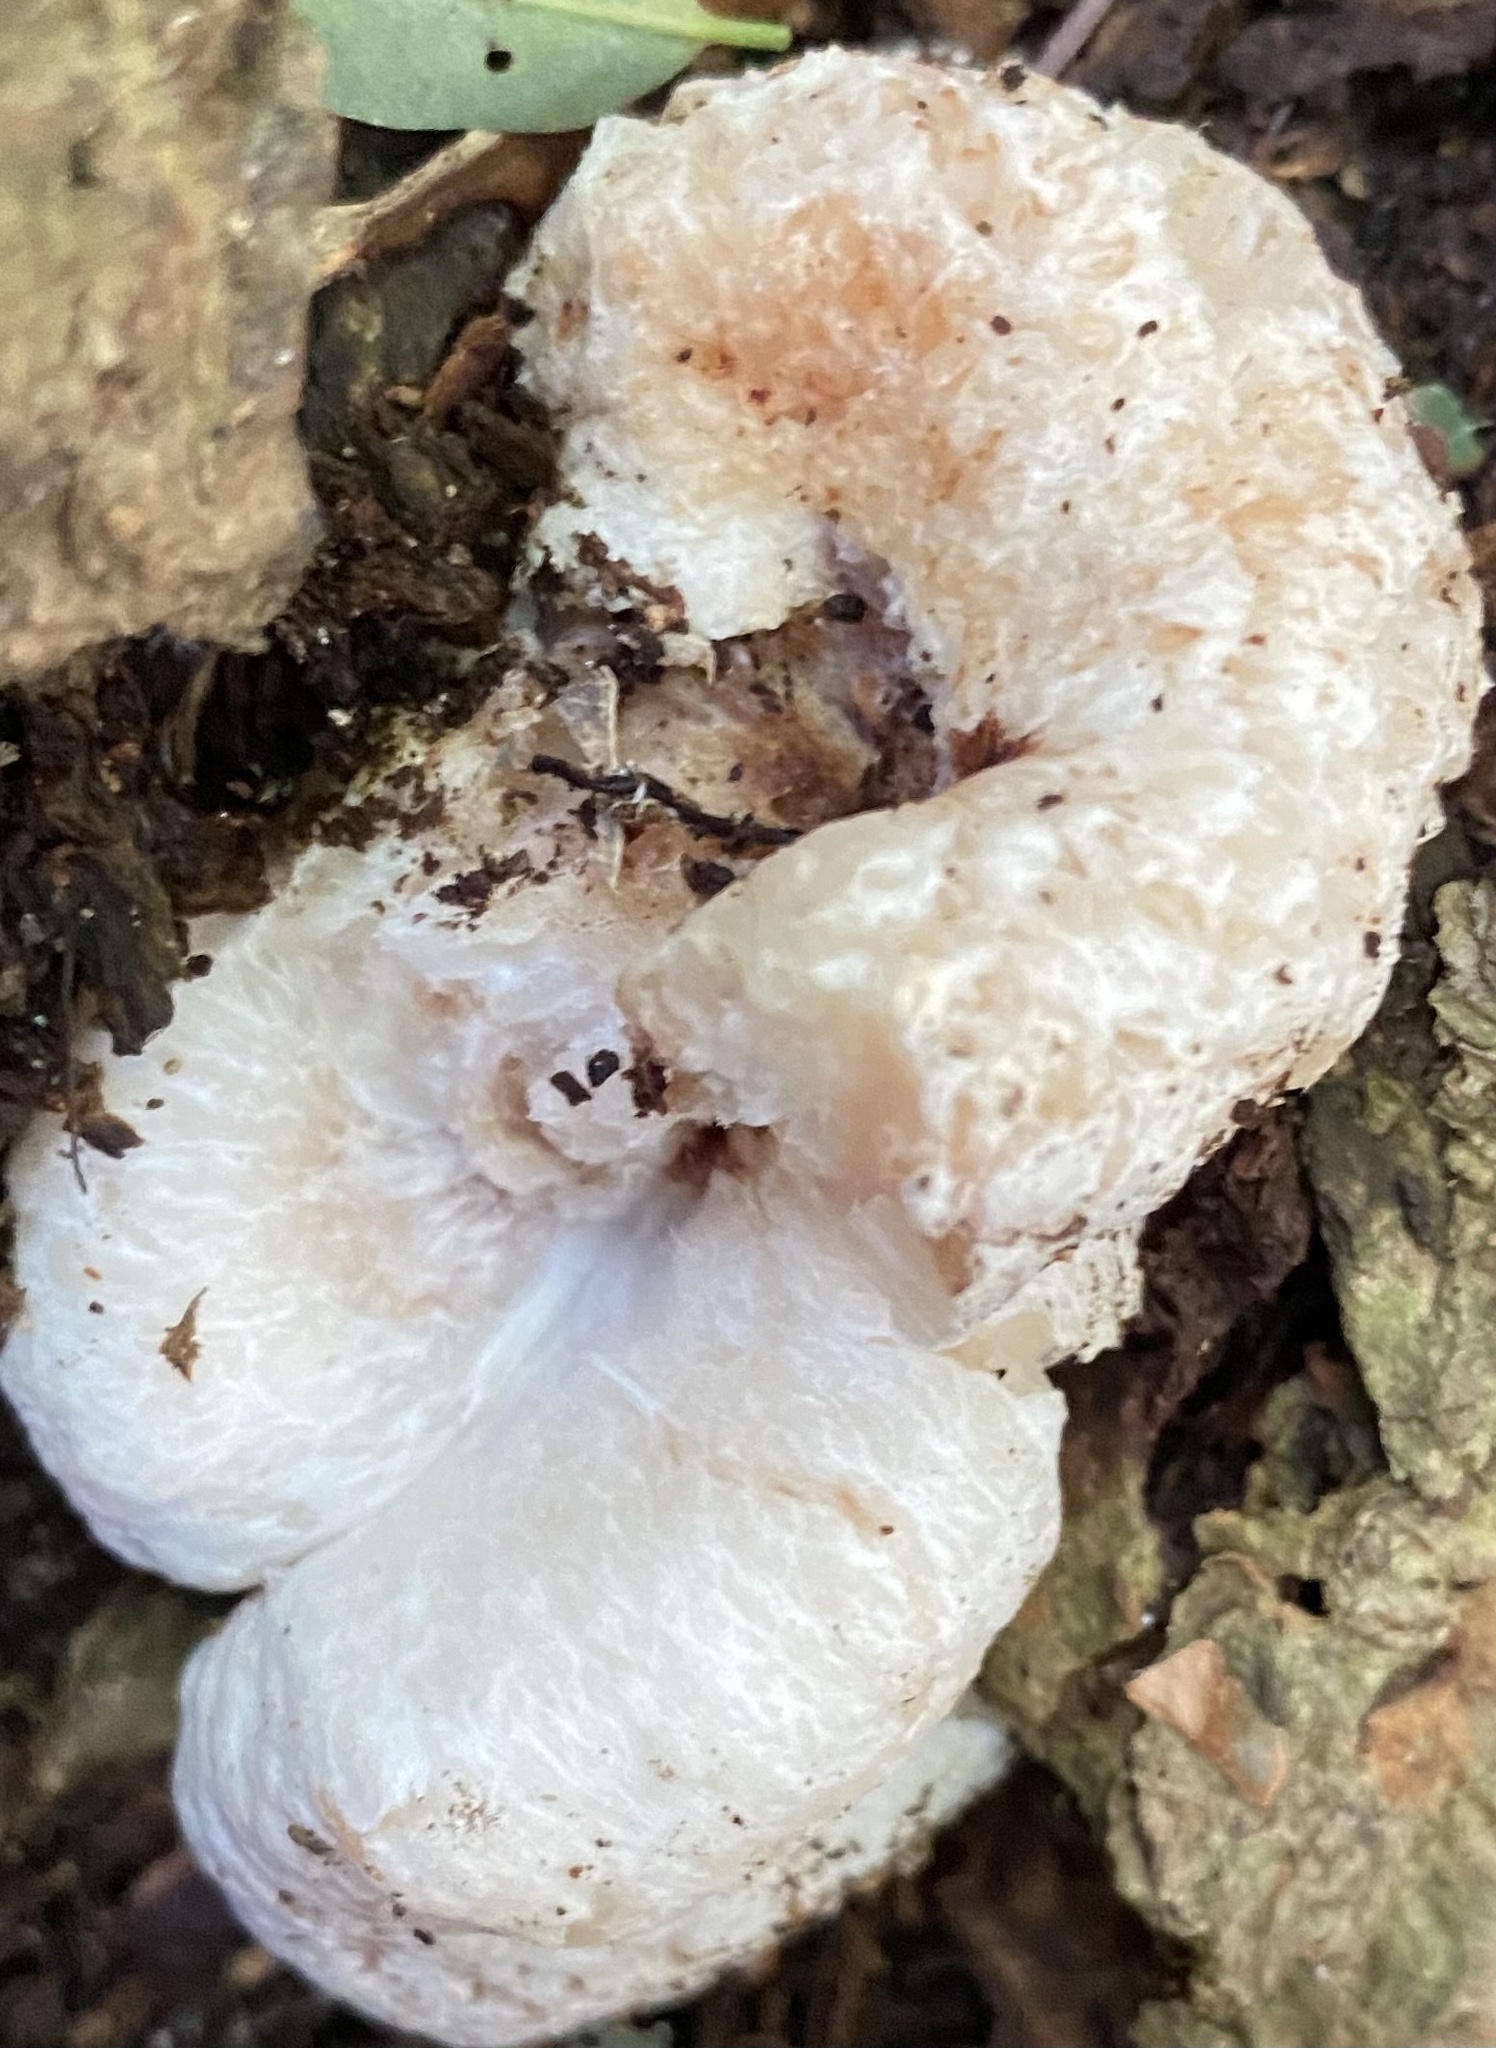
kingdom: Fungi
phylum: Basidiomycota
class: Agaricomycetes
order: Agaricales
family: Entolomataceae
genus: Entoloma
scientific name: Entoloma abortivum
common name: Aborted entoloma
